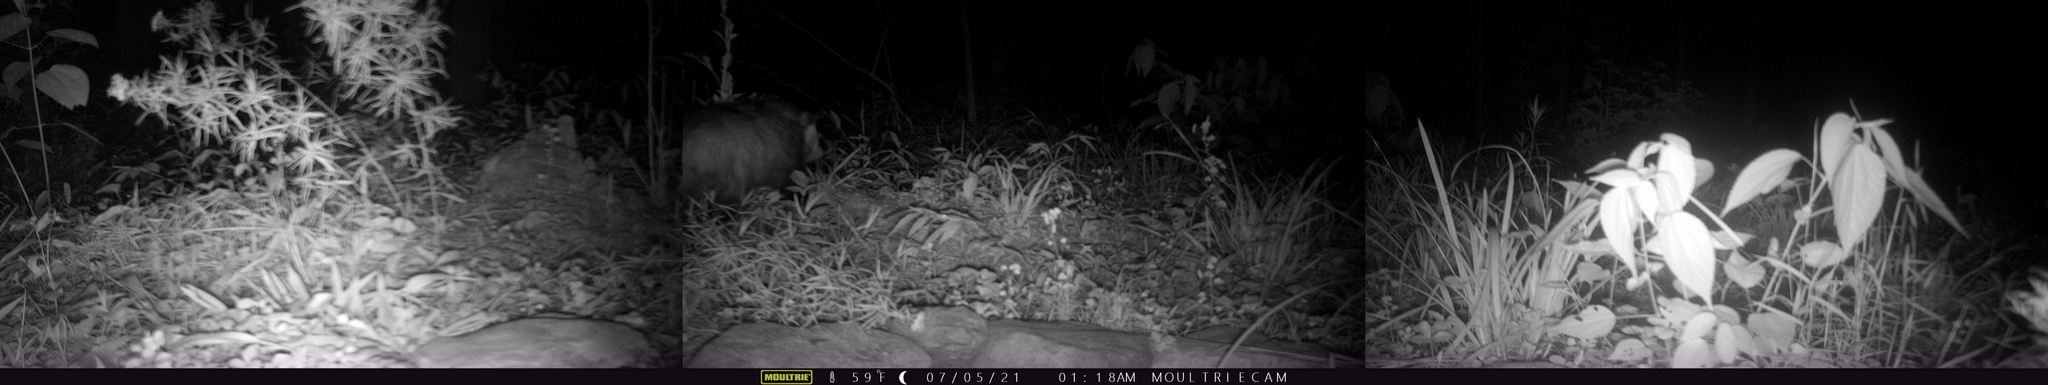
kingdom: Animalia
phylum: Chordata
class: Mammalia
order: Didelphimorphia
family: Didelphidae
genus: Didelphis
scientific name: Didelphis virginiana
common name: Virginia opossum
